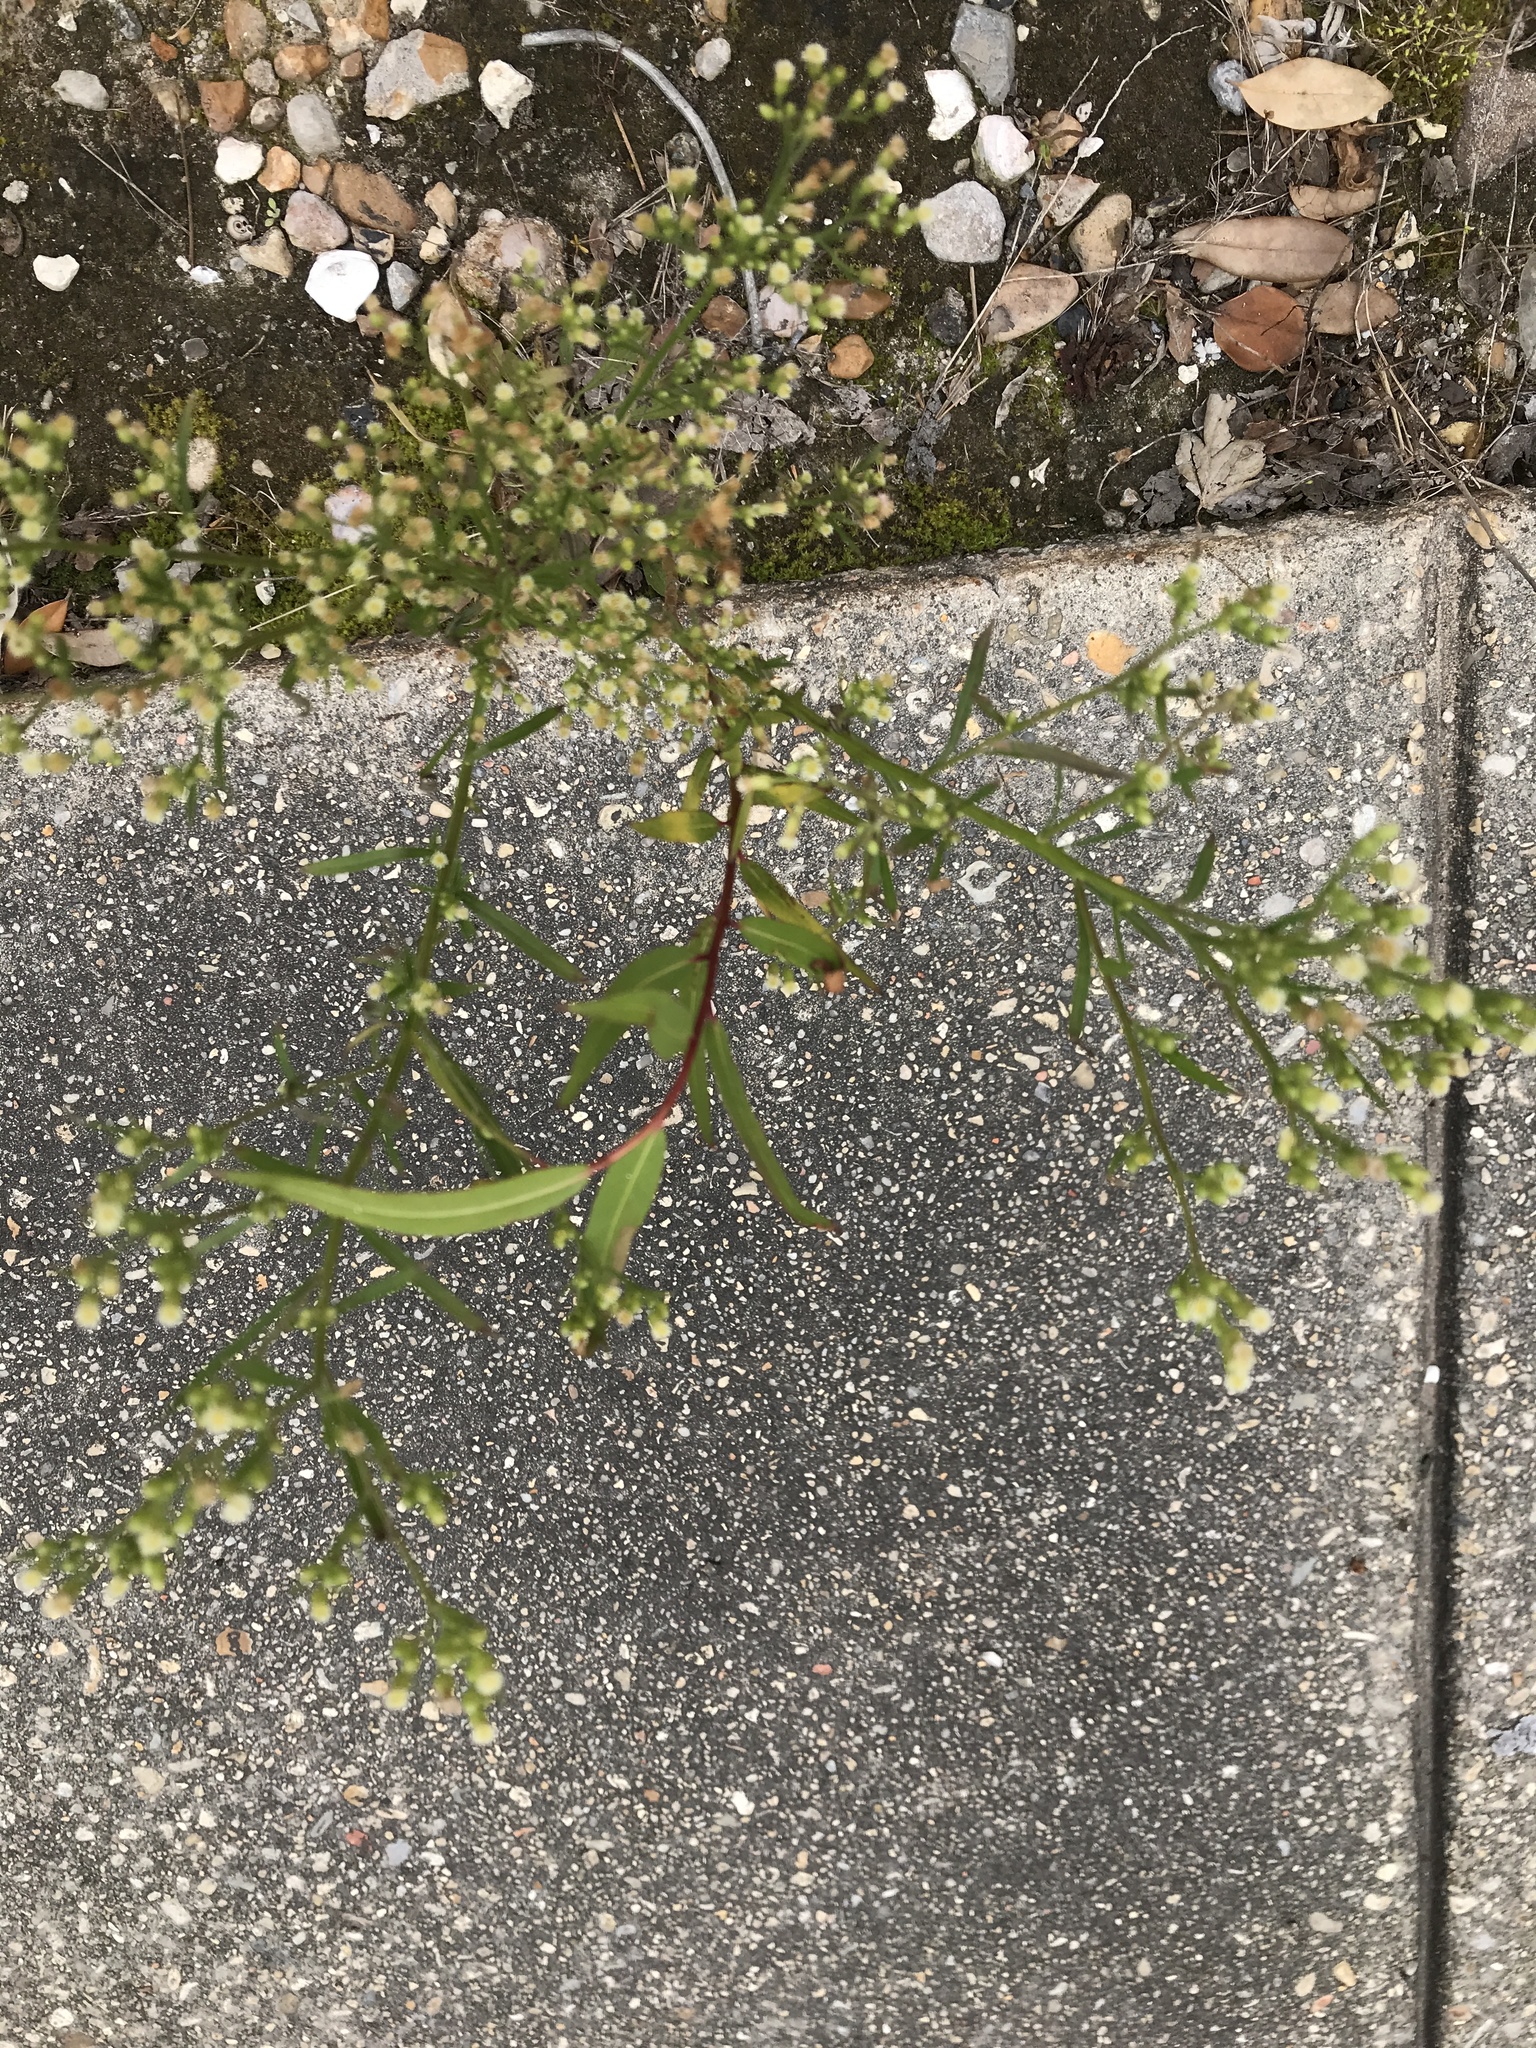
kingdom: Plantae
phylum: Tracheophyta
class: Magnoliopsida
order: Asterales
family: Asteraceae
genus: Erigeron
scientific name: Erigeron canadensis
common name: Canadian fleabane
